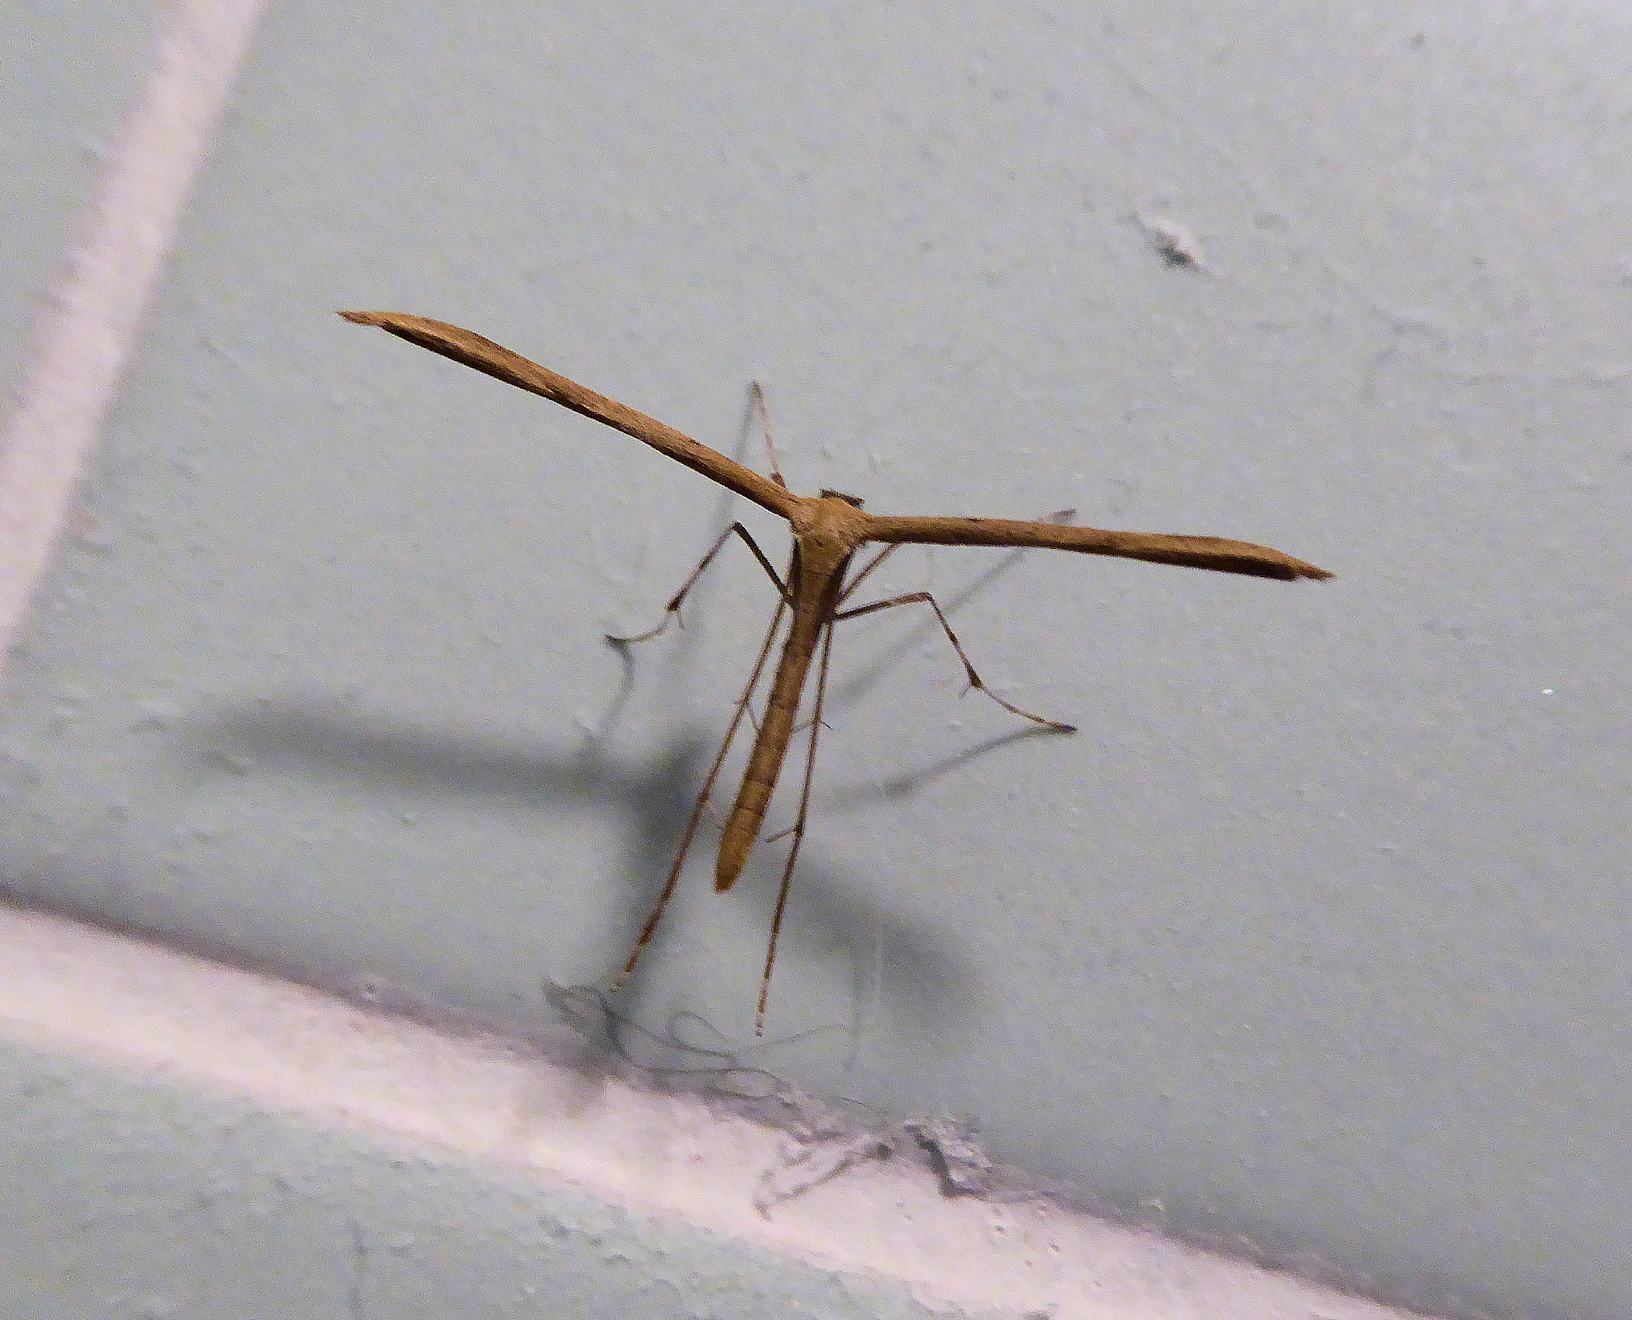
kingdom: Animalia
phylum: Arthropoda
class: Insecta
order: Lepidoptera
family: Pterophoridae
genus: Emmelina
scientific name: Emmelina monodactyla
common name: Common plume
